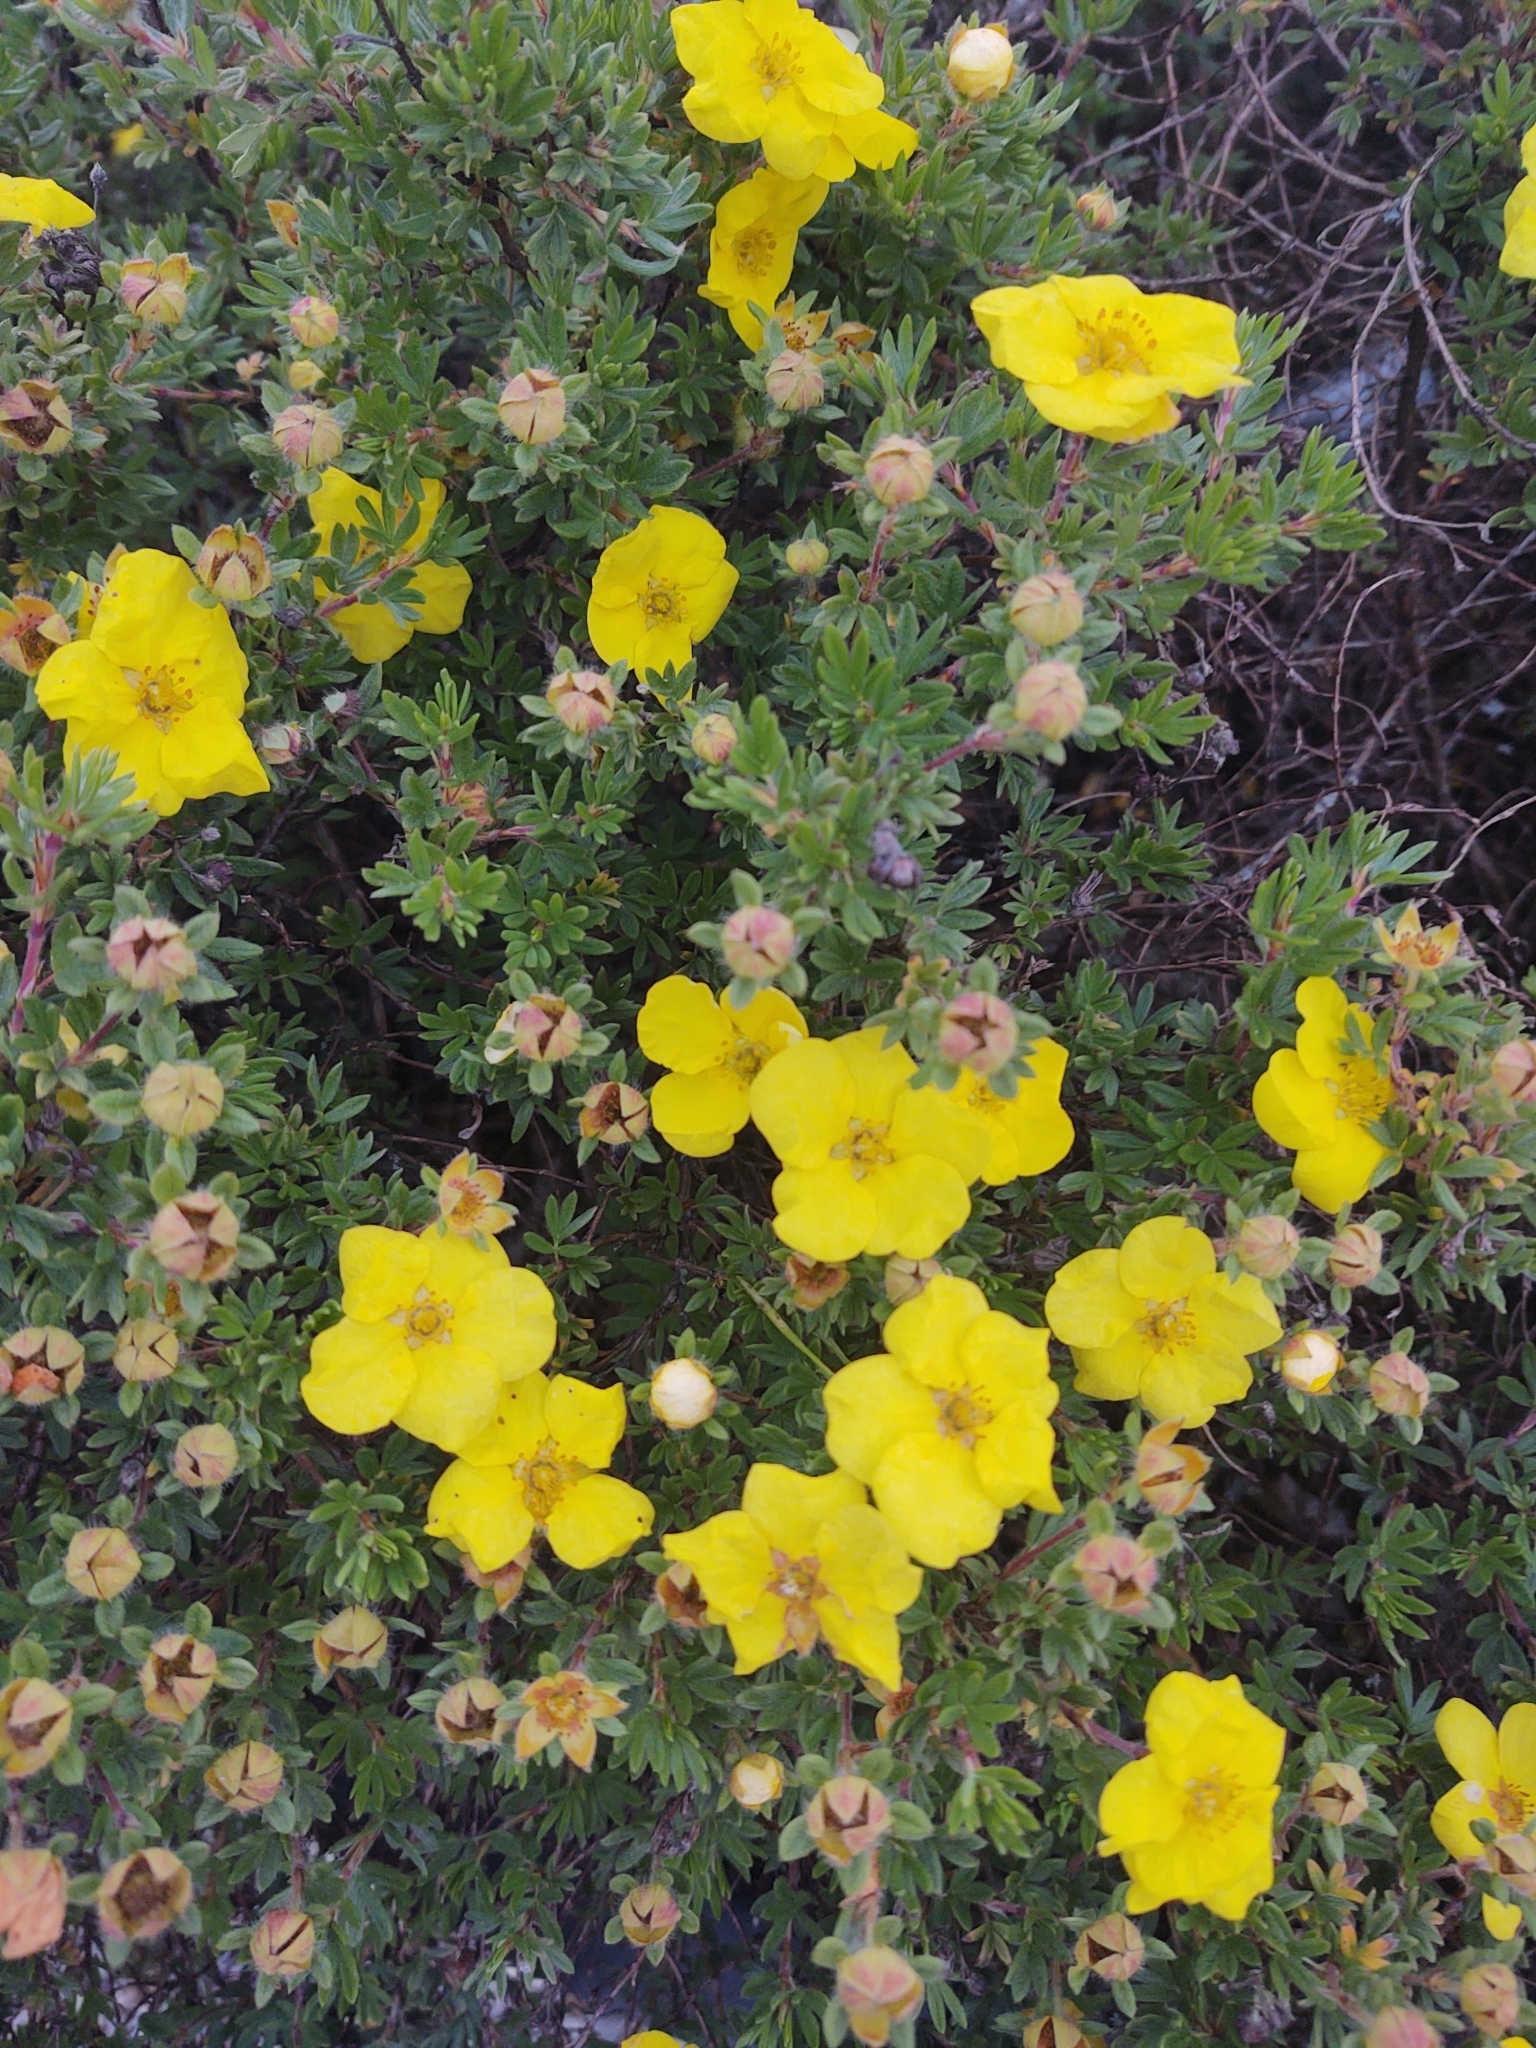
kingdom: Plantae
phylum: Tracheophyta
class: Magnoliopsida
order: Rosales
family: Rosaceae
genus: Dasiphora
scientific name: Dasiphora fruticosa
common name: Shrubby cinquefoil
